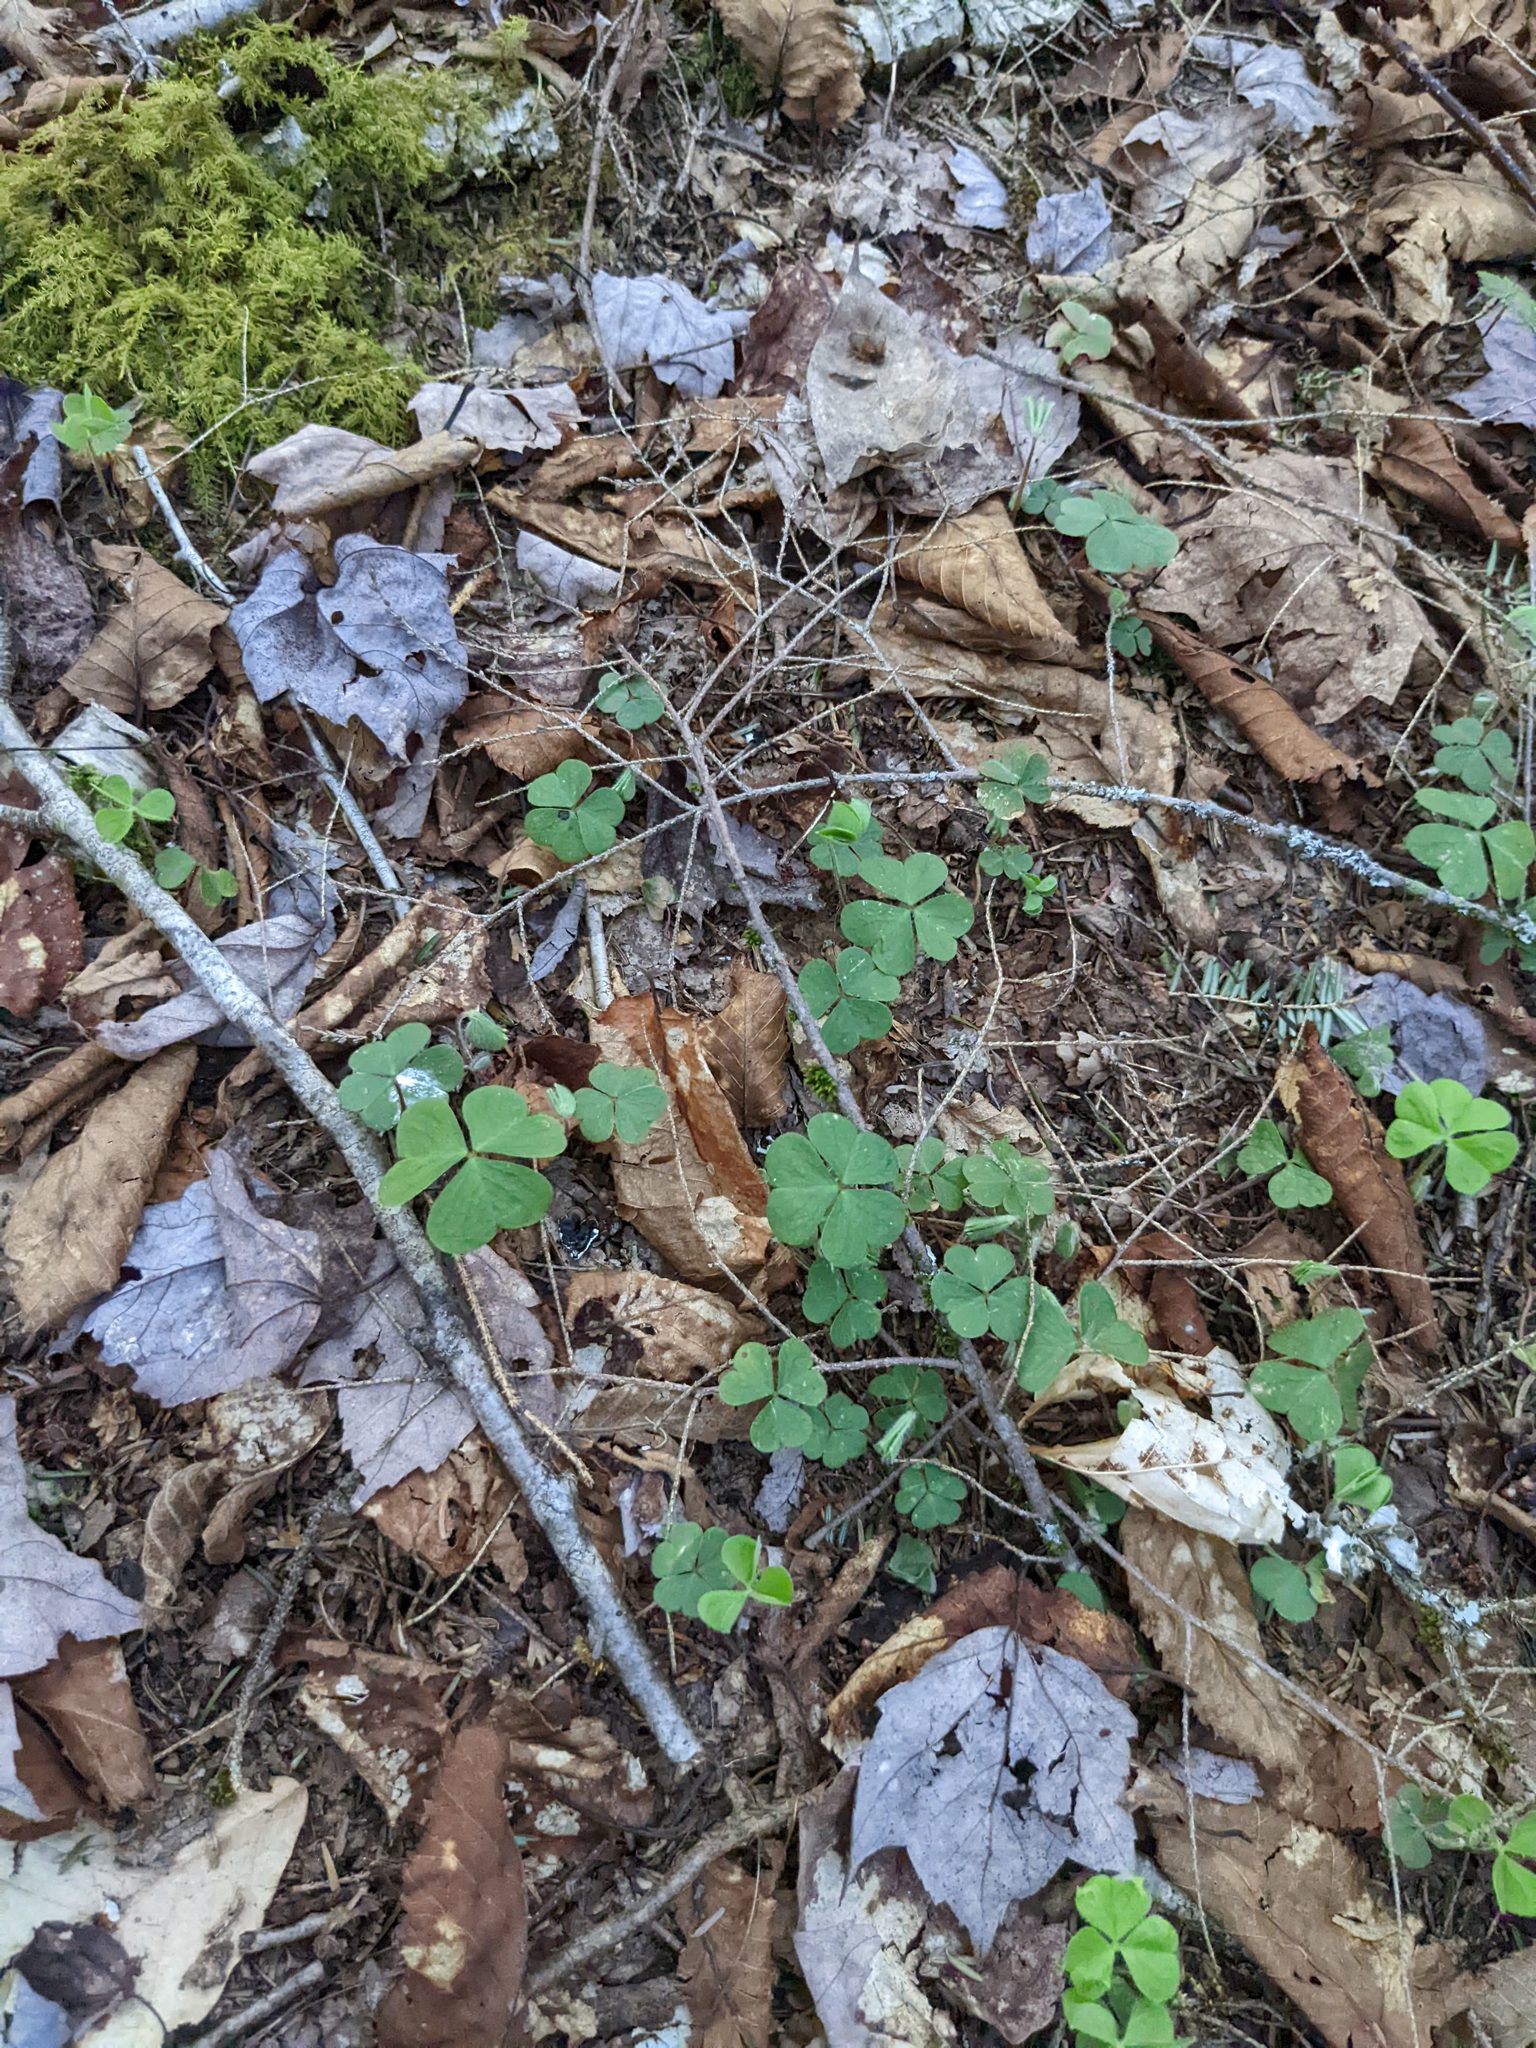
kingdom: Plantae
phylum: Tracheophyta
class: Magnoliopsida
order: Oxalidales
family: Oxalidaceae
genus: Oxalis
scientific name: Oxalis montana
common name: American wood-sorrel
